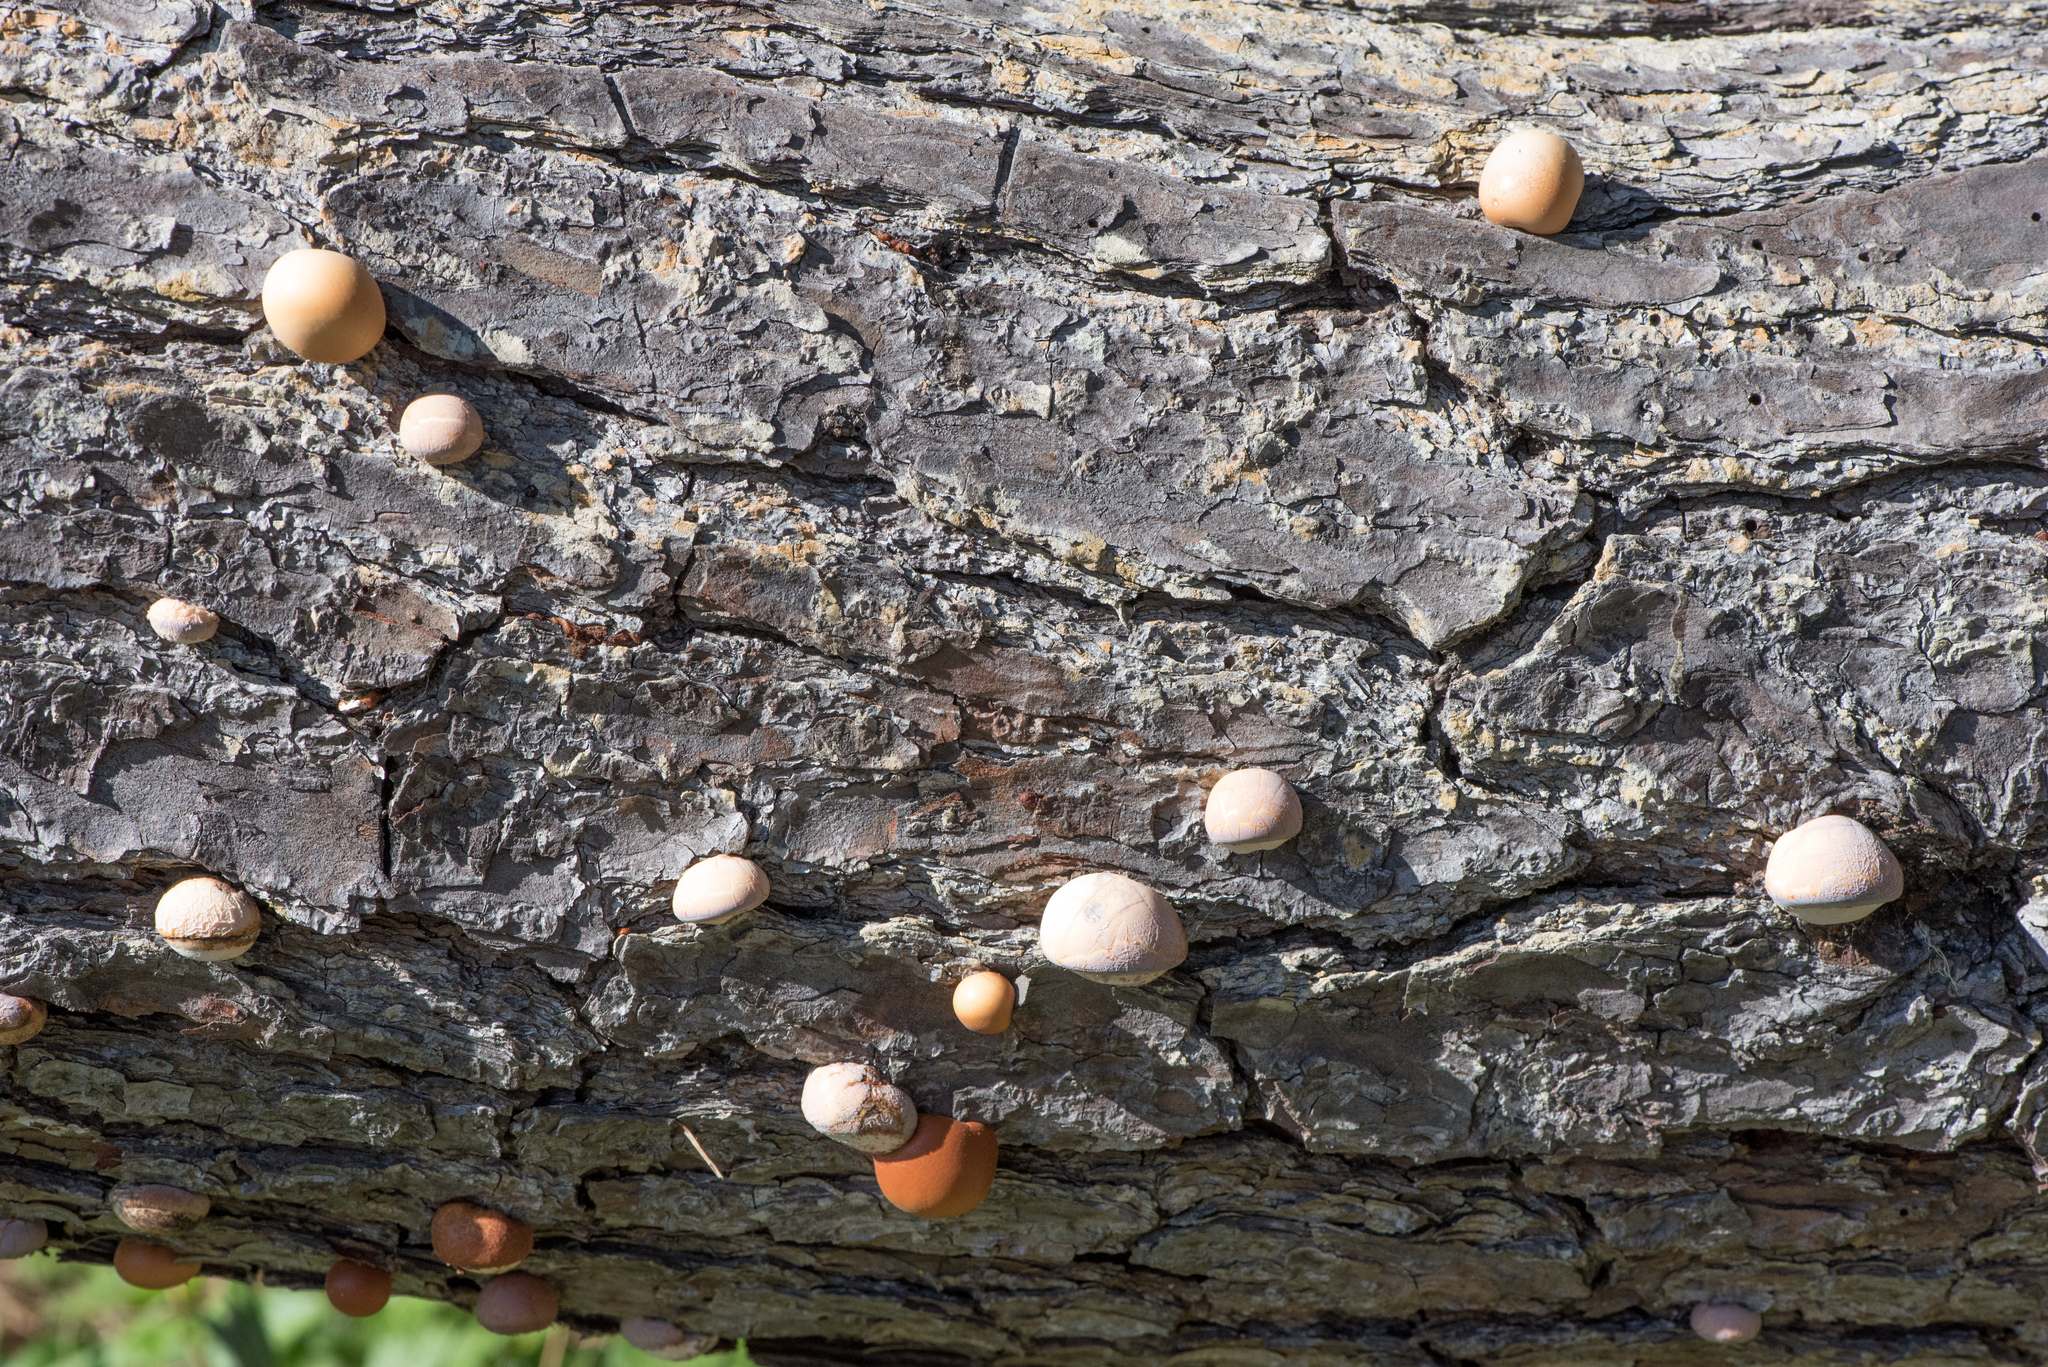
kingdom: Fungi
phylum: Basidiomycota
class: Agaricomycetes
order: Polyporales
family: Polyporaceae
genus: Cryptoporus
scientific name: Cryptoporus volvatus
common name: Veiled polypore
